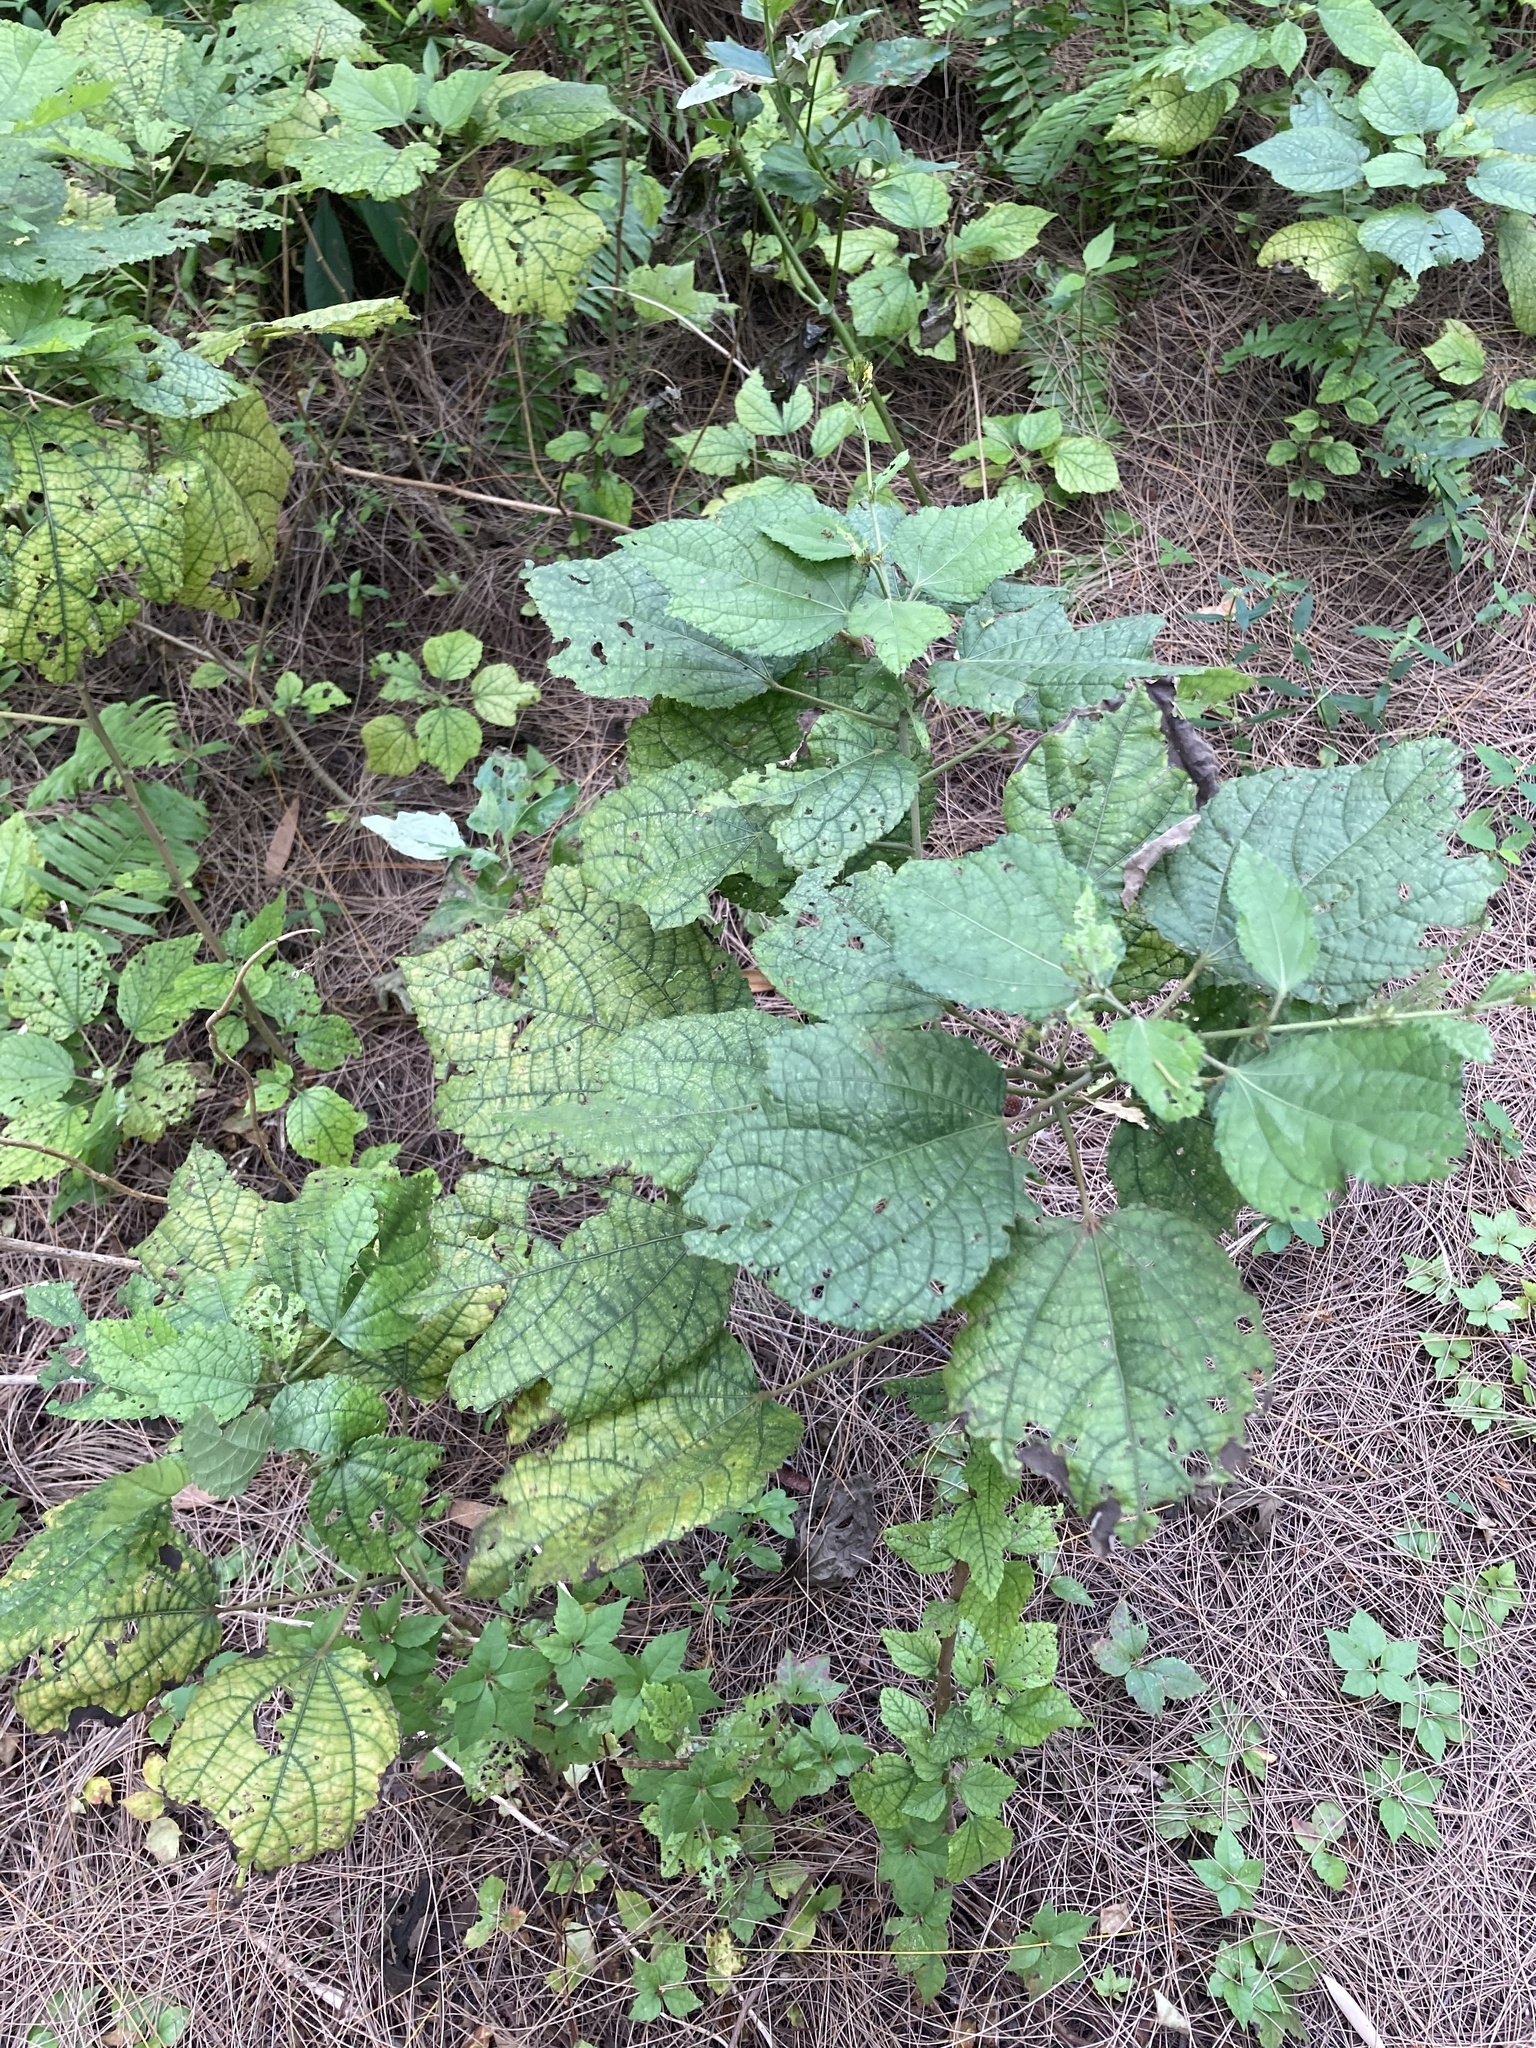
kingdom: Plantae
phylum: Tracheophyta
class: Magnoliopsida
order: Malvales
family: Malvaceae
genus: Triumfetta
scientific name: Triumfetta semitriloba
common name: Sacramento burbark
